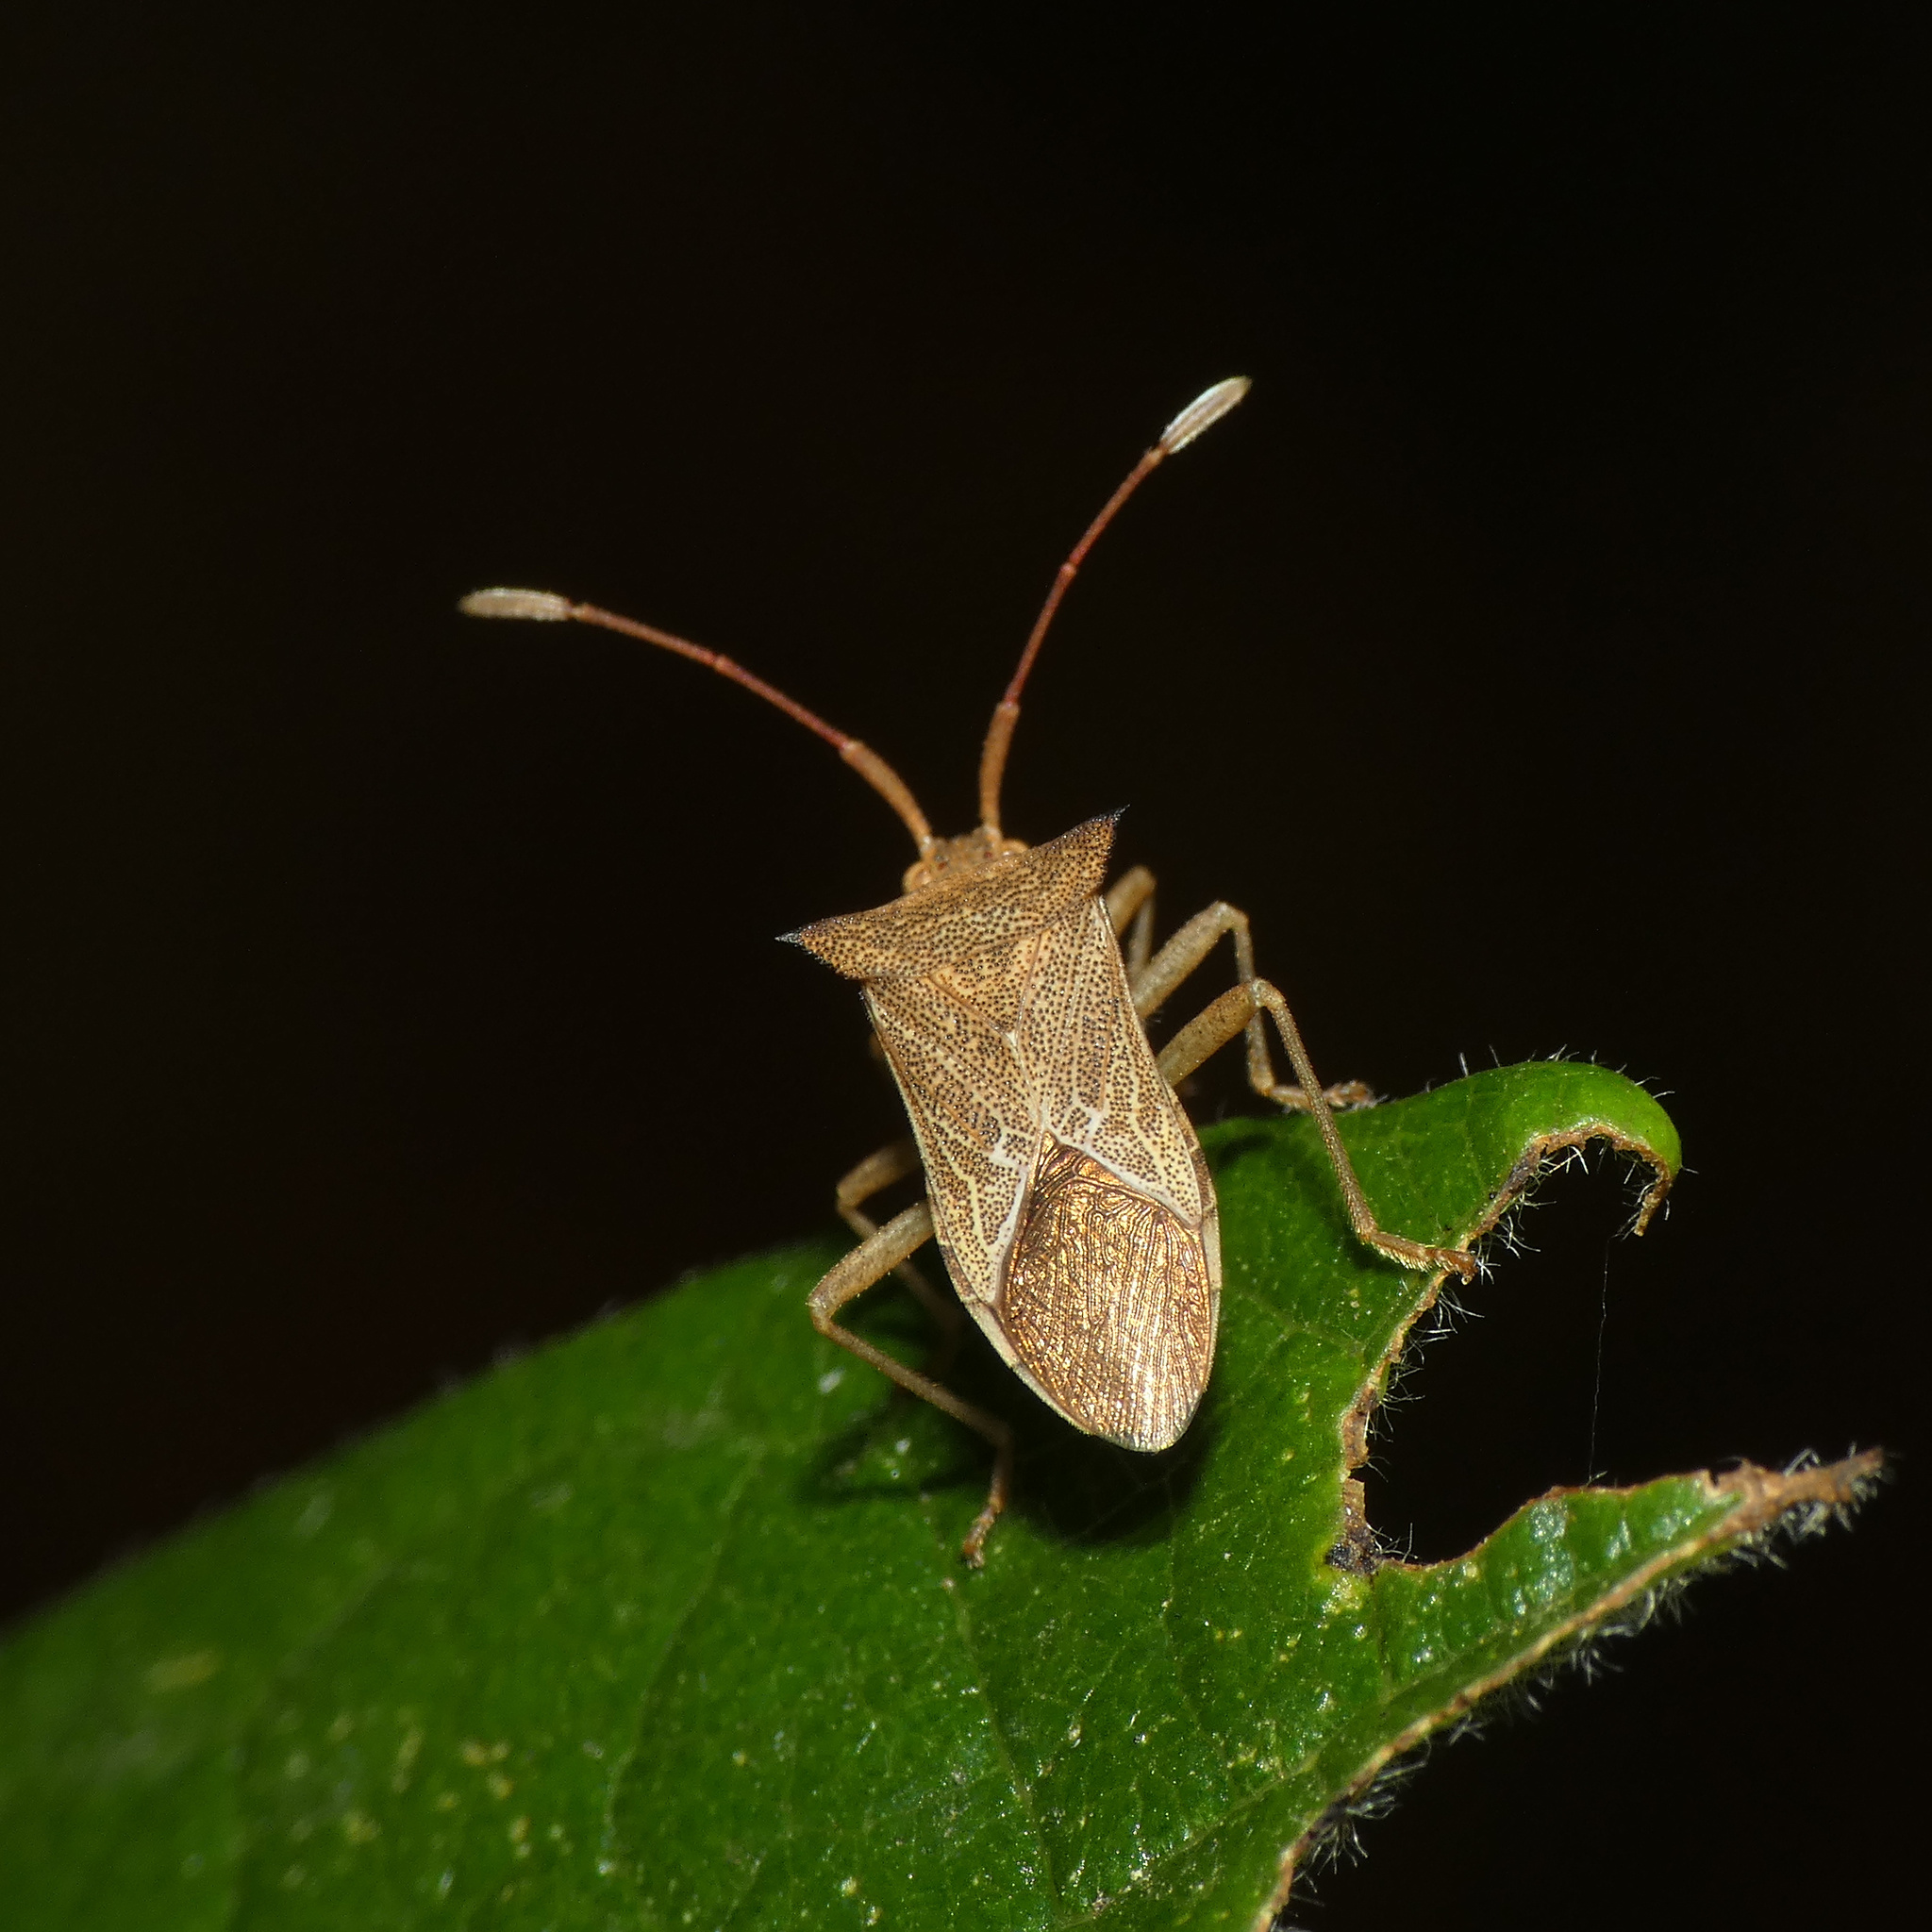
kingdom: Animalia
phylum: Arthropoda
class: Insecta
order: Hemiptera
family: Coreidae
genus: Cletus
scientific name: Cletus ochraceus
